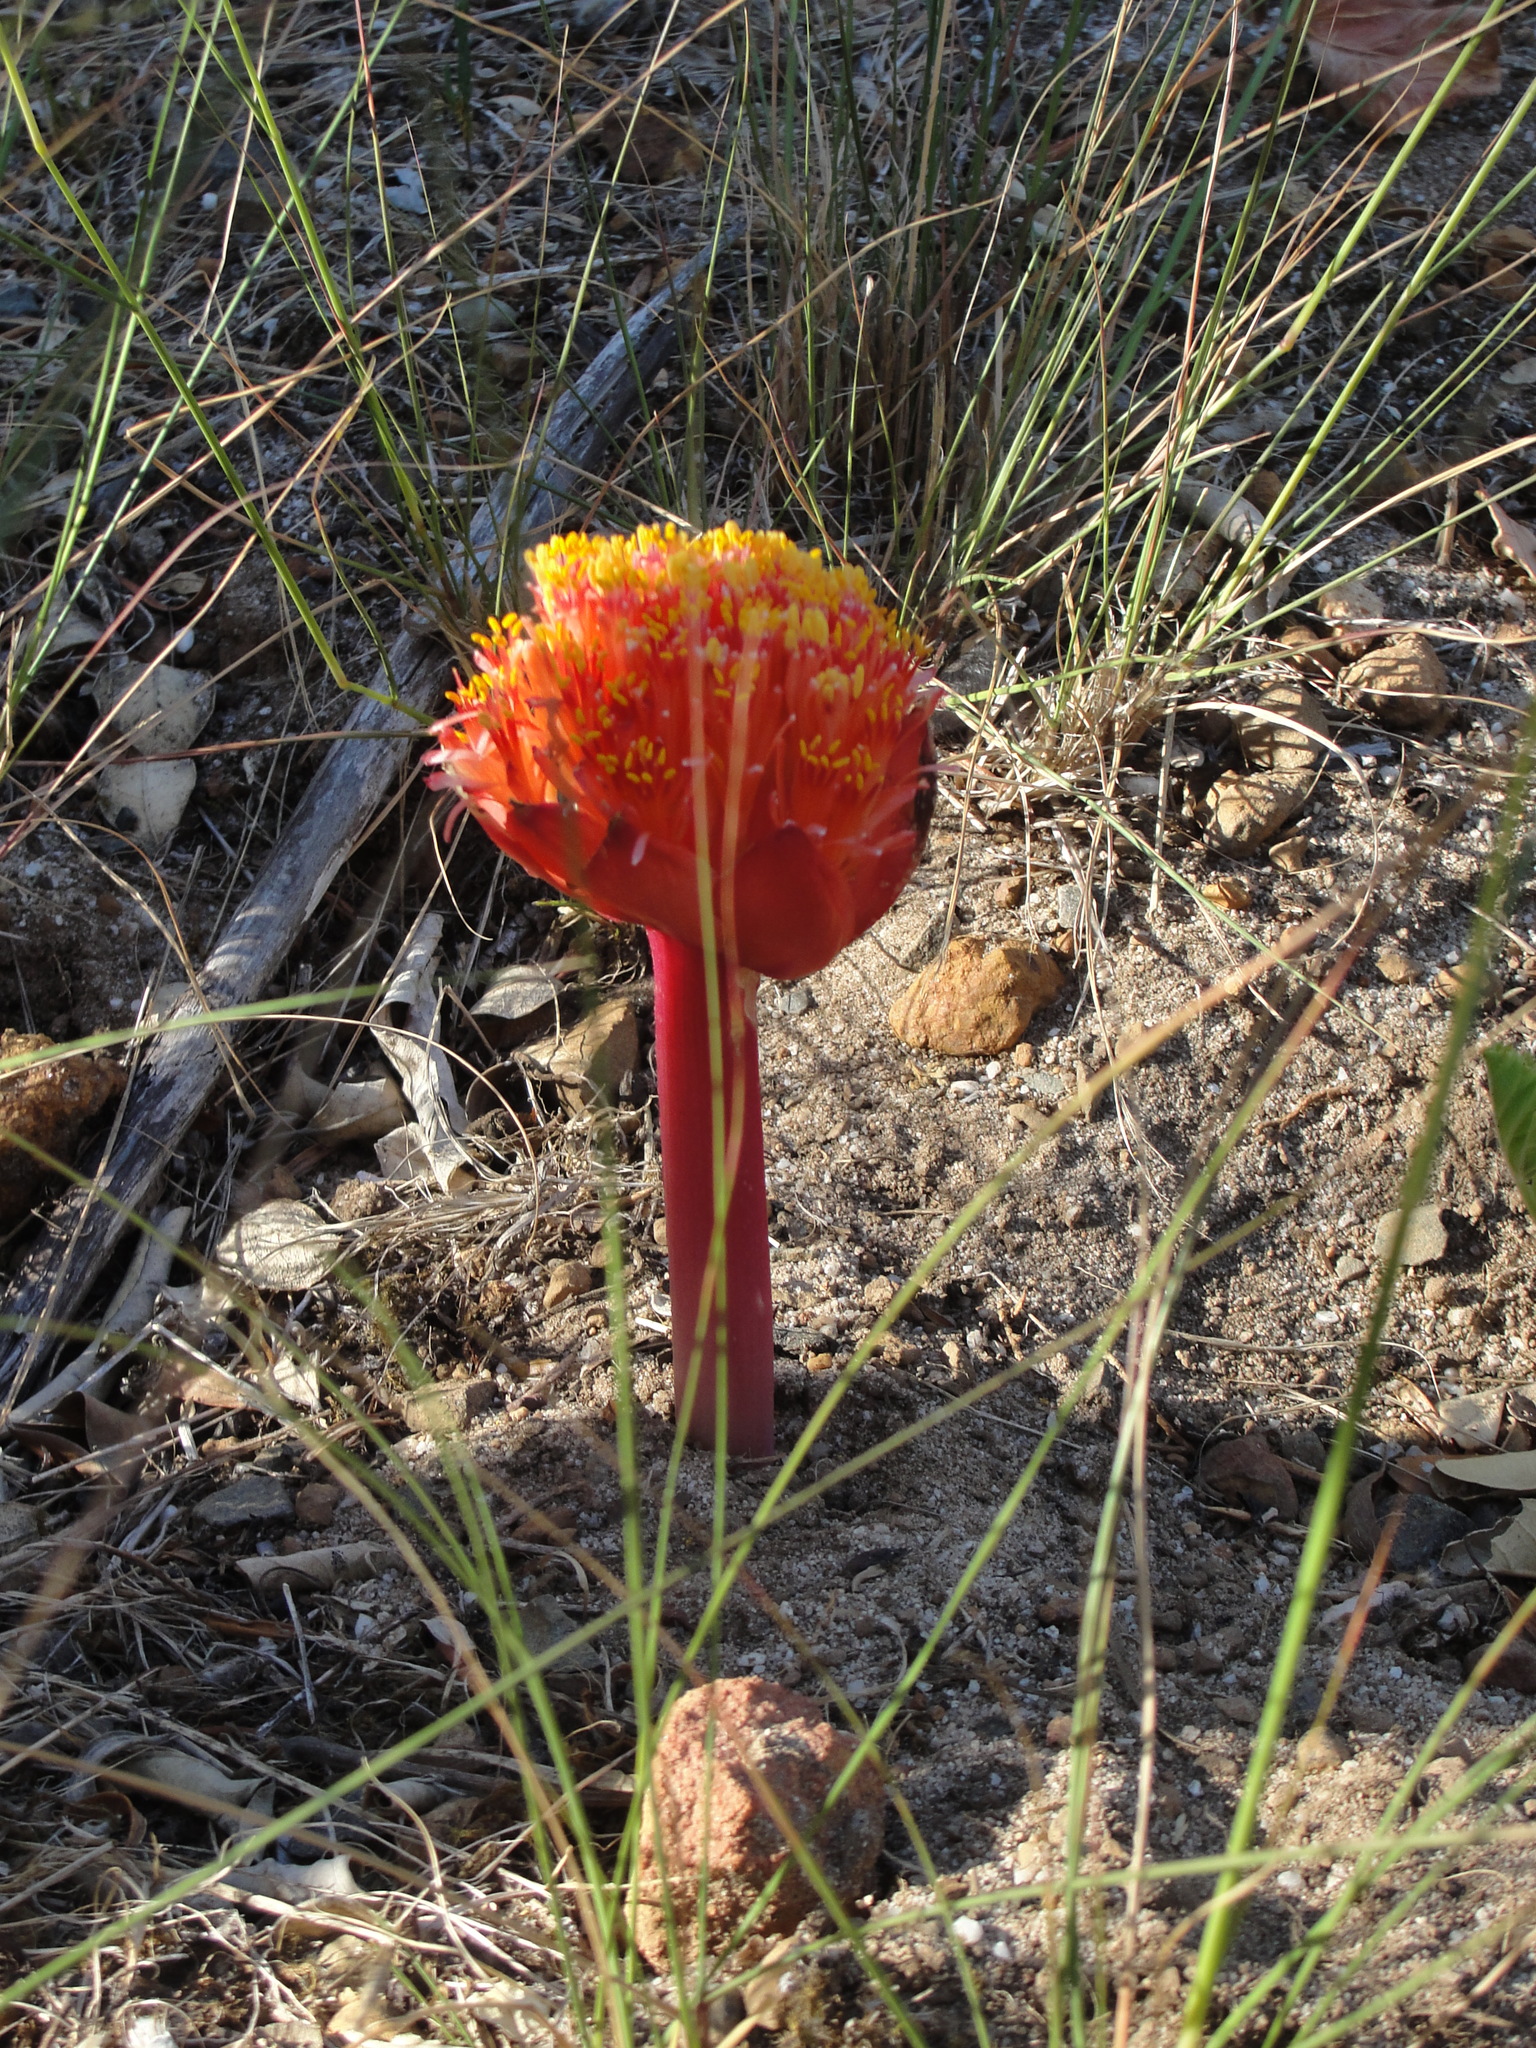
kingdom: Plantae
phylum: Tracheophyta
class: Liliopsida
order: Asparagales
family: Amaryllidaceae
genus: Haemanthus
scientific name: Haemanthus sanguineus
